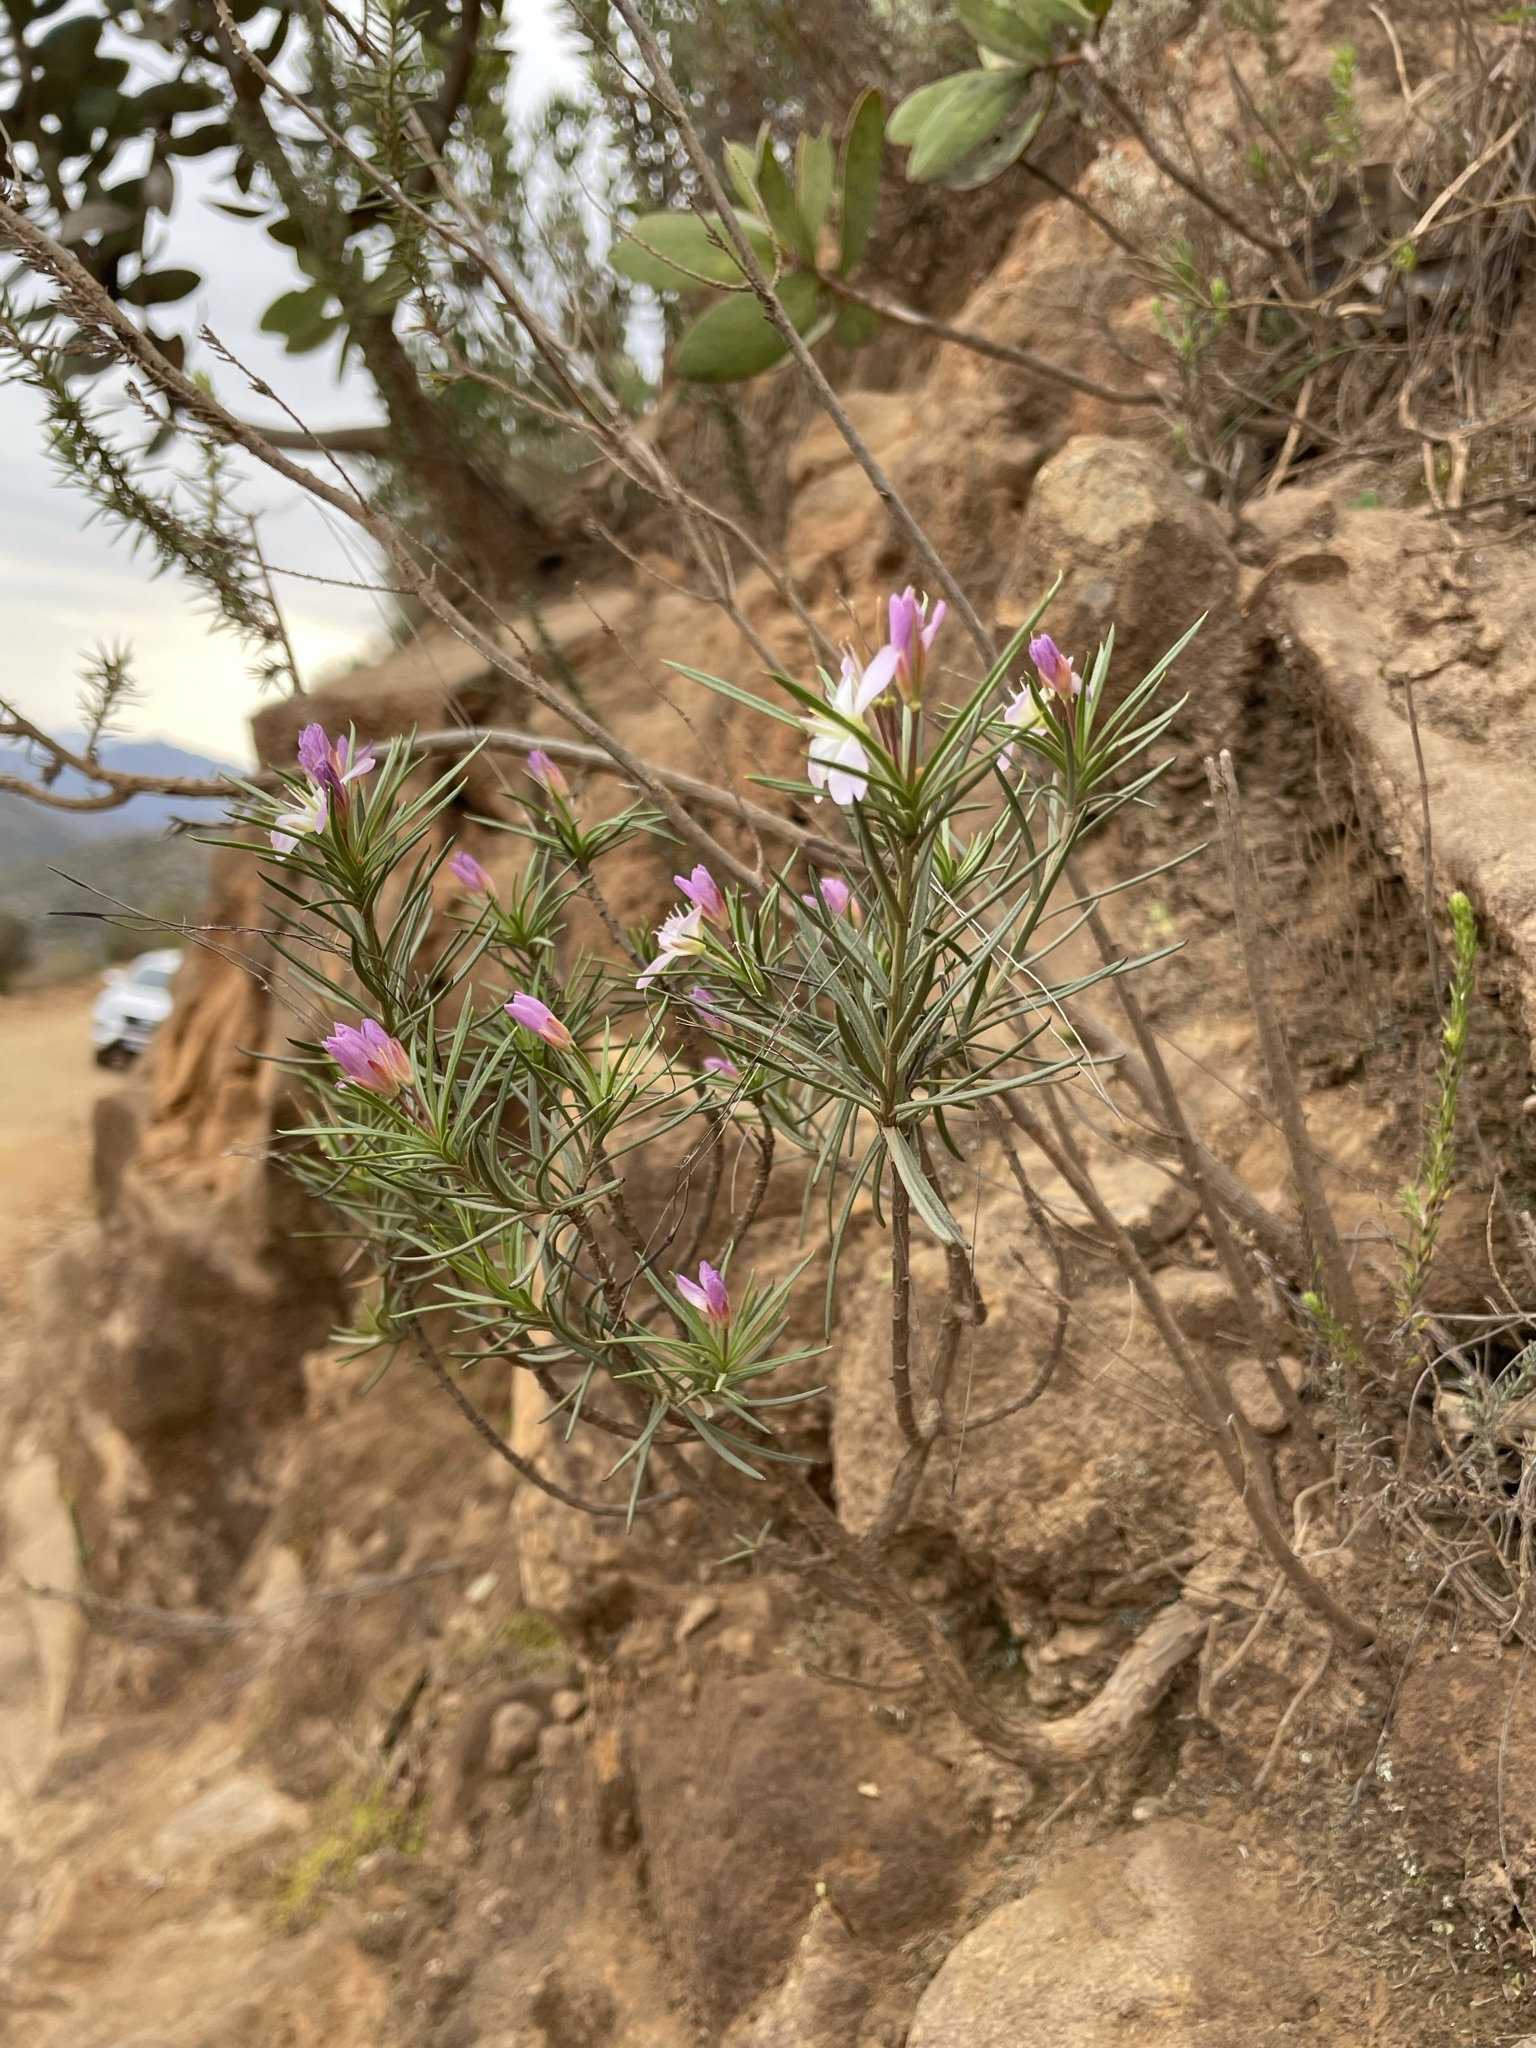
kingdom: Plantae
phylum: Tracheophyta
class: Magnoliopsida
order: Brassicales
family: Brassicaceae
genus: Heliophila
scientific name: Heliophila scoparia
